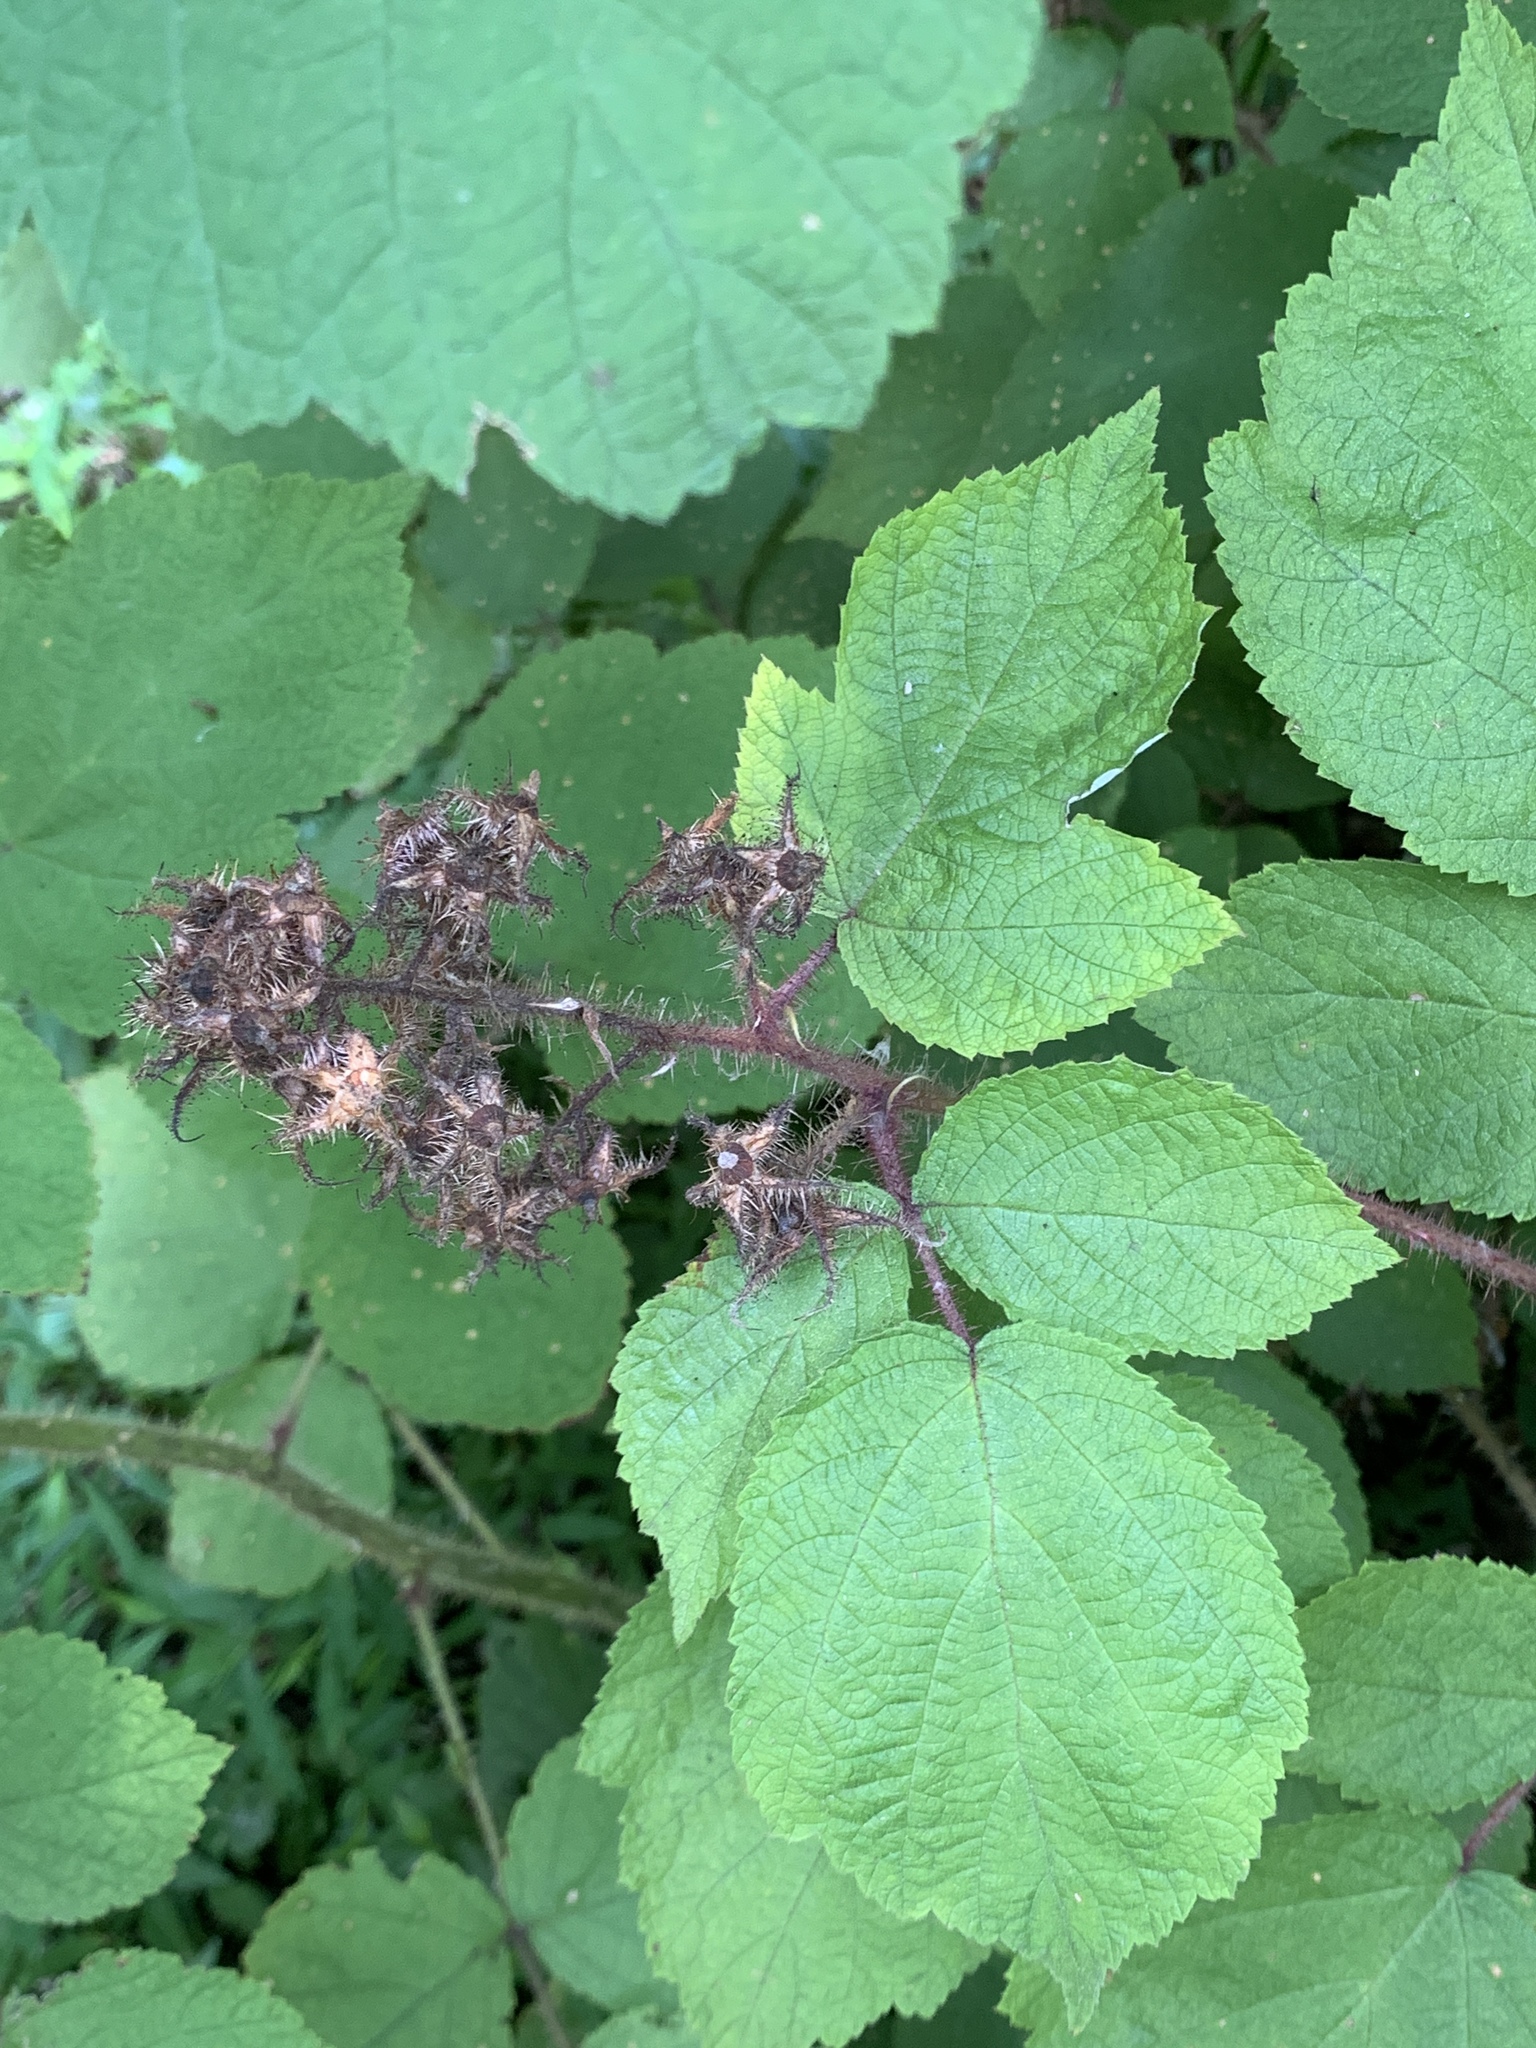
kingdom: Plantae
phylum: Tracheophyta
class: Magnoliopsida
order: Rosales
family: Rosaceae
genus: Rubus
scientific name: Rubus phoenicolasius
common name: Japanese wineberry
